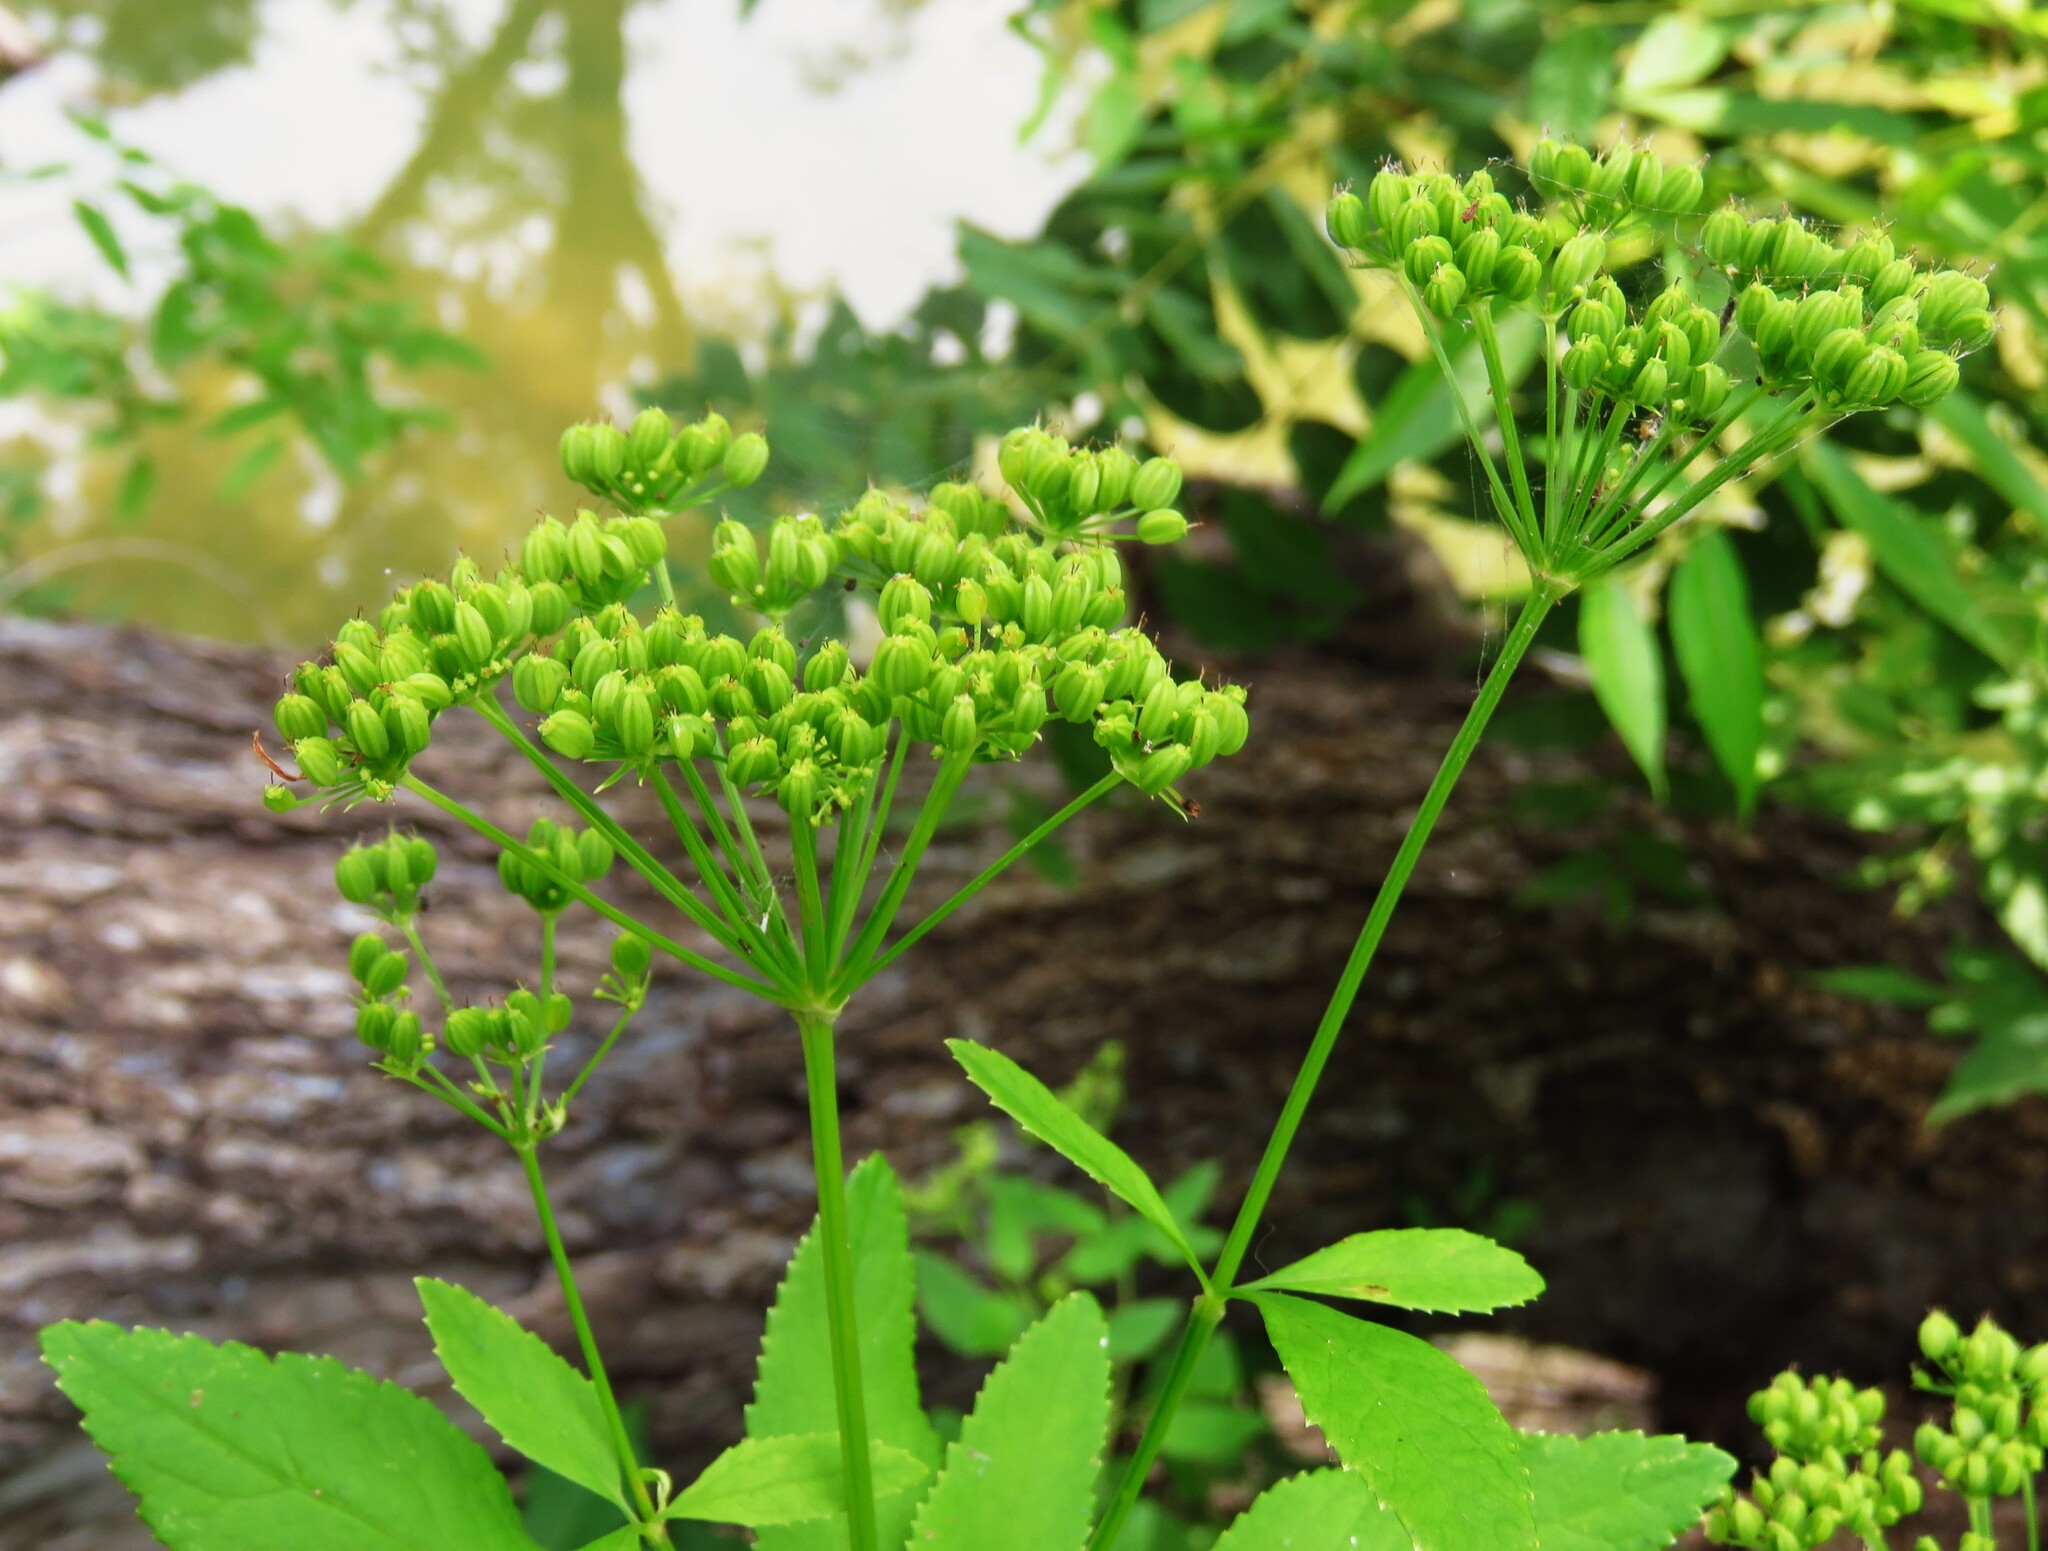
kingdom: Plantae
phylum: Tracheophyta
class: Magnoliopsida
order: Apiales
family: Apiaceae
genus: Zizia
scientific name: Zizia aurea
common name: Golden alexanders
